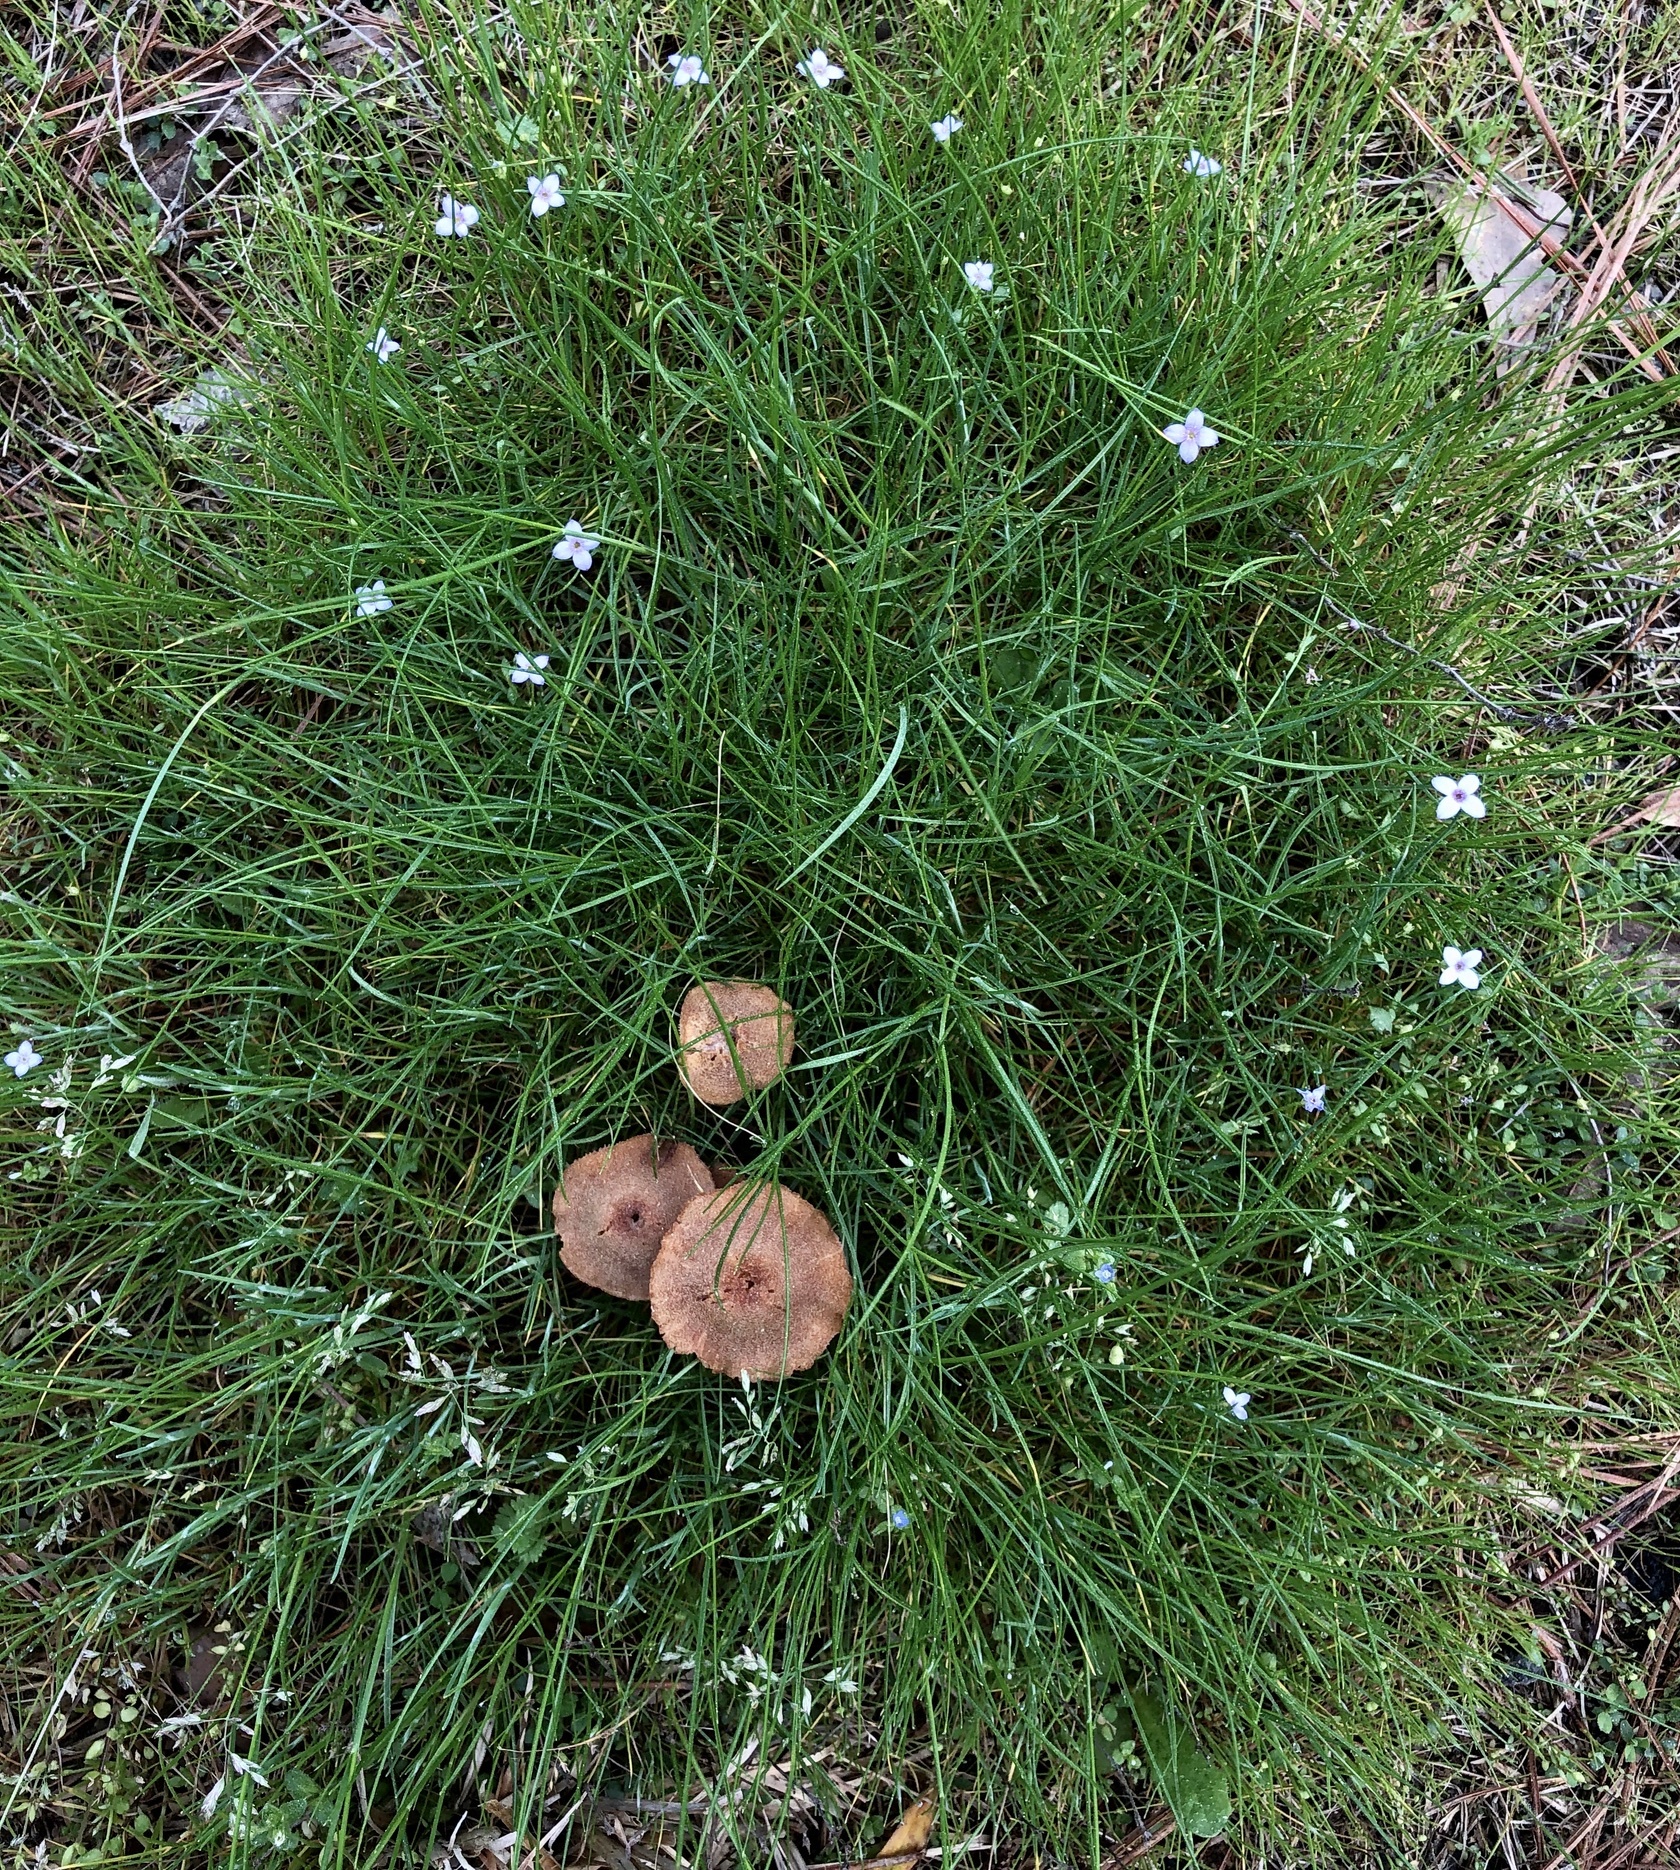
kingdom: Fungi
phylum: Basidiomycota
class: Agaricomycetes
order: Agaricales
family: Hydnangiaceae
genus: Laccaria
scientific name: Laccaria laccata
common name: Deceiver
